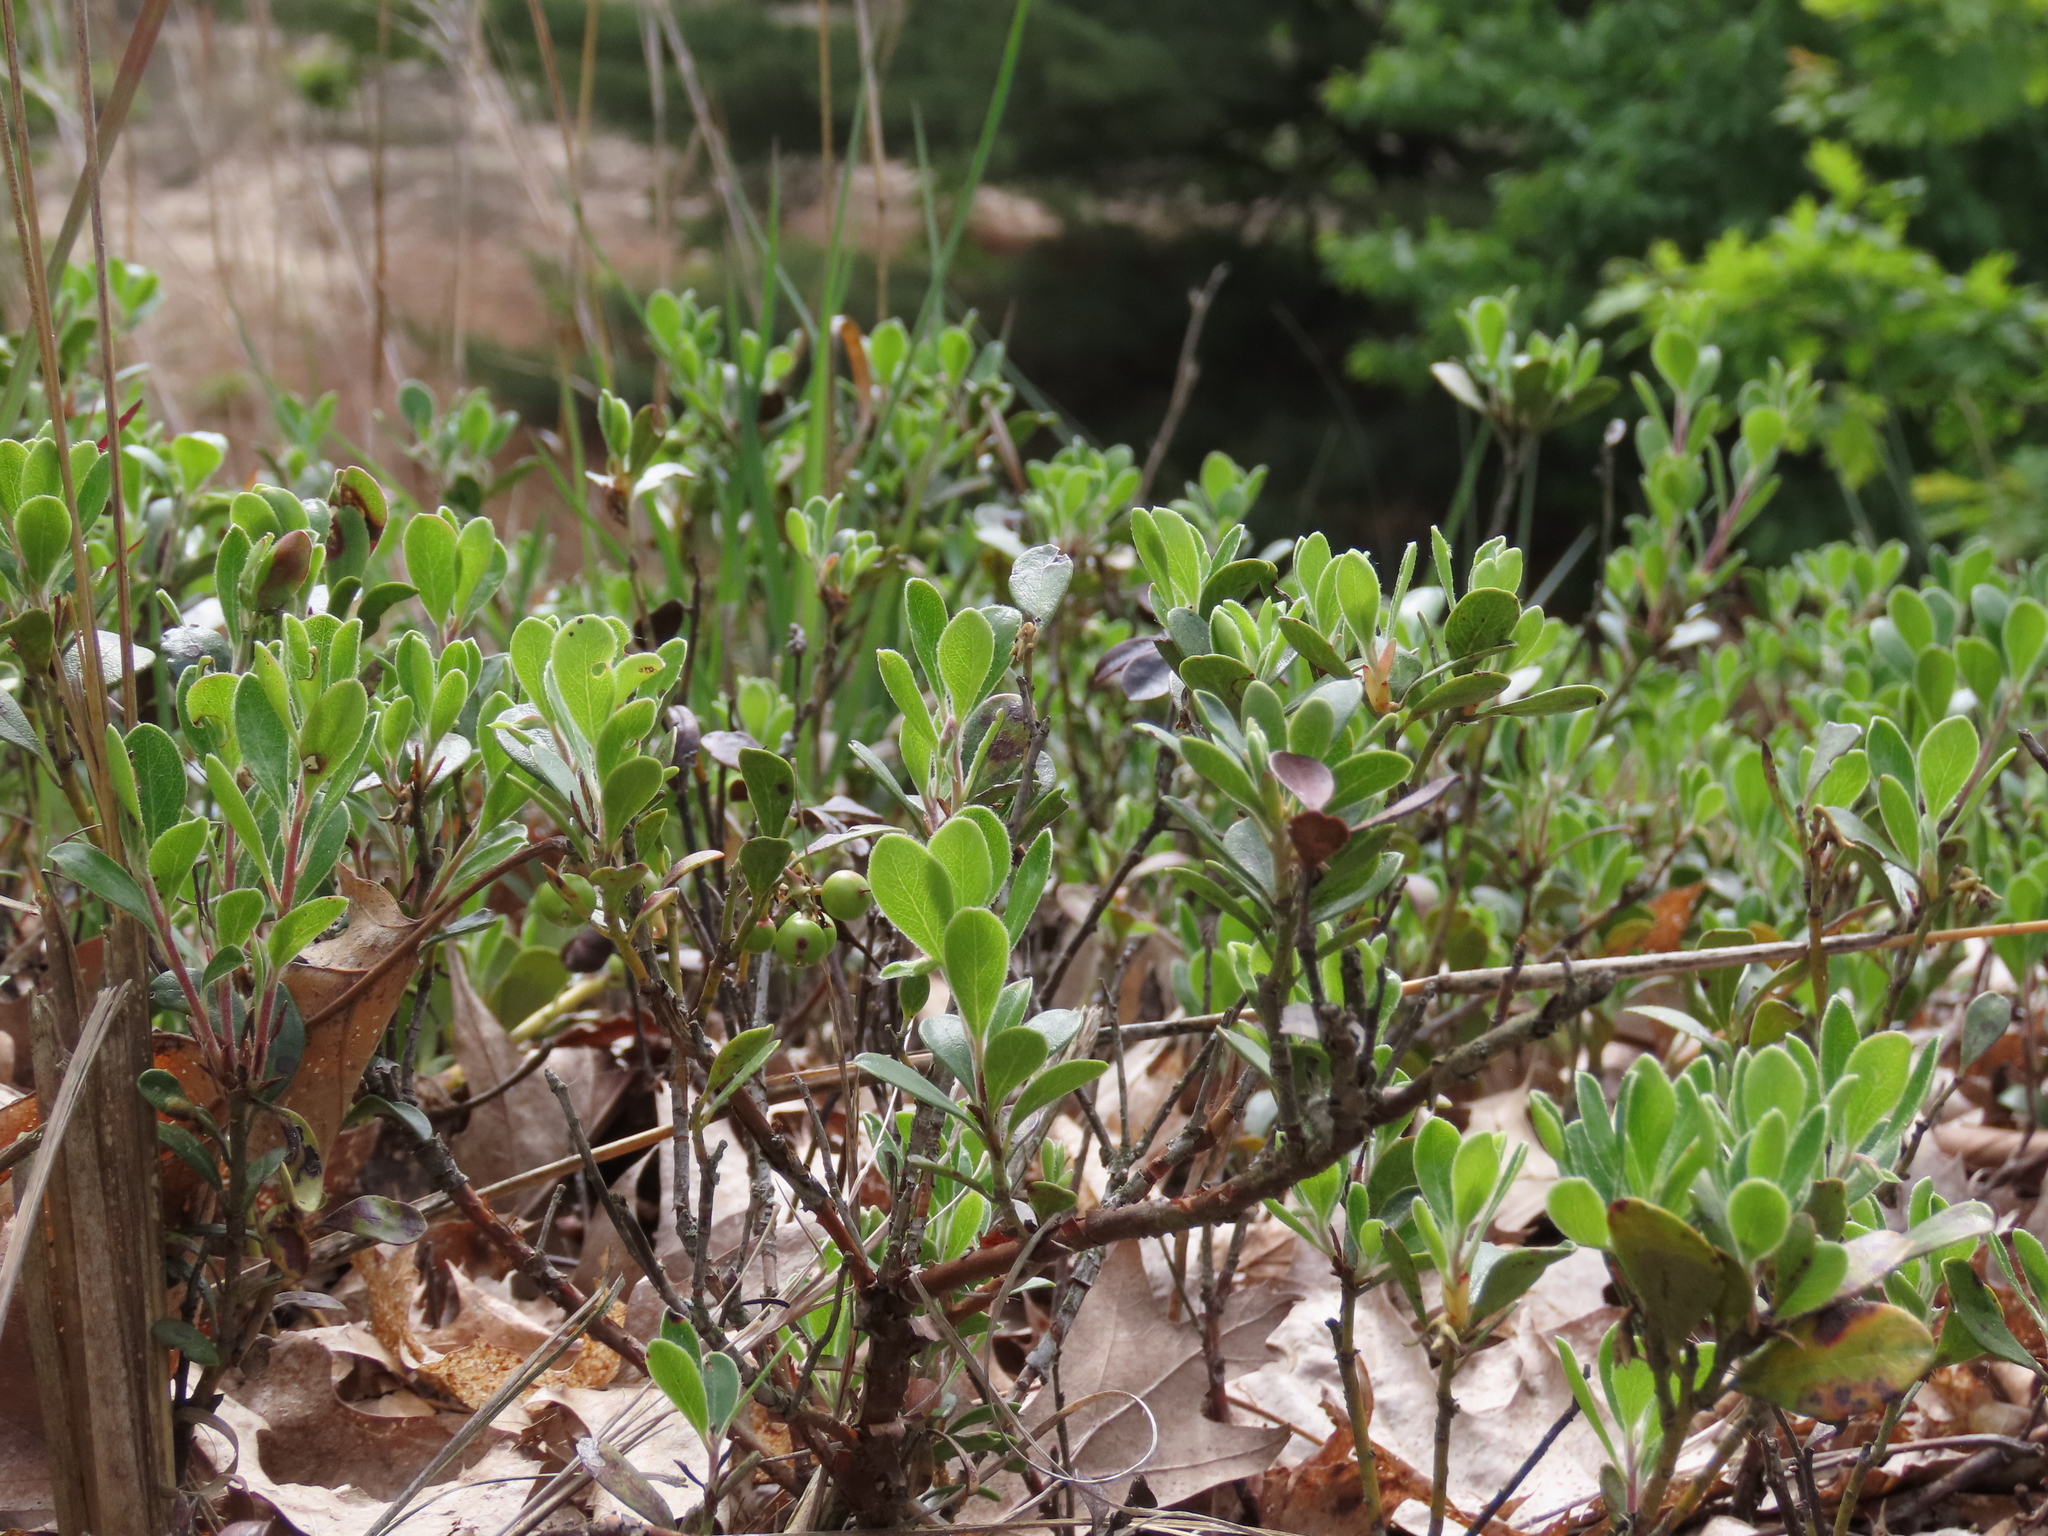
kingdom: Plantae
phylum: Tracheophyta
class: Magnoliopsida
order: Ericales
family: Ericaceae
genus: Arctostaphylos
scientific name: Arctostaphylos uva-ursi
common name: Bearberry
